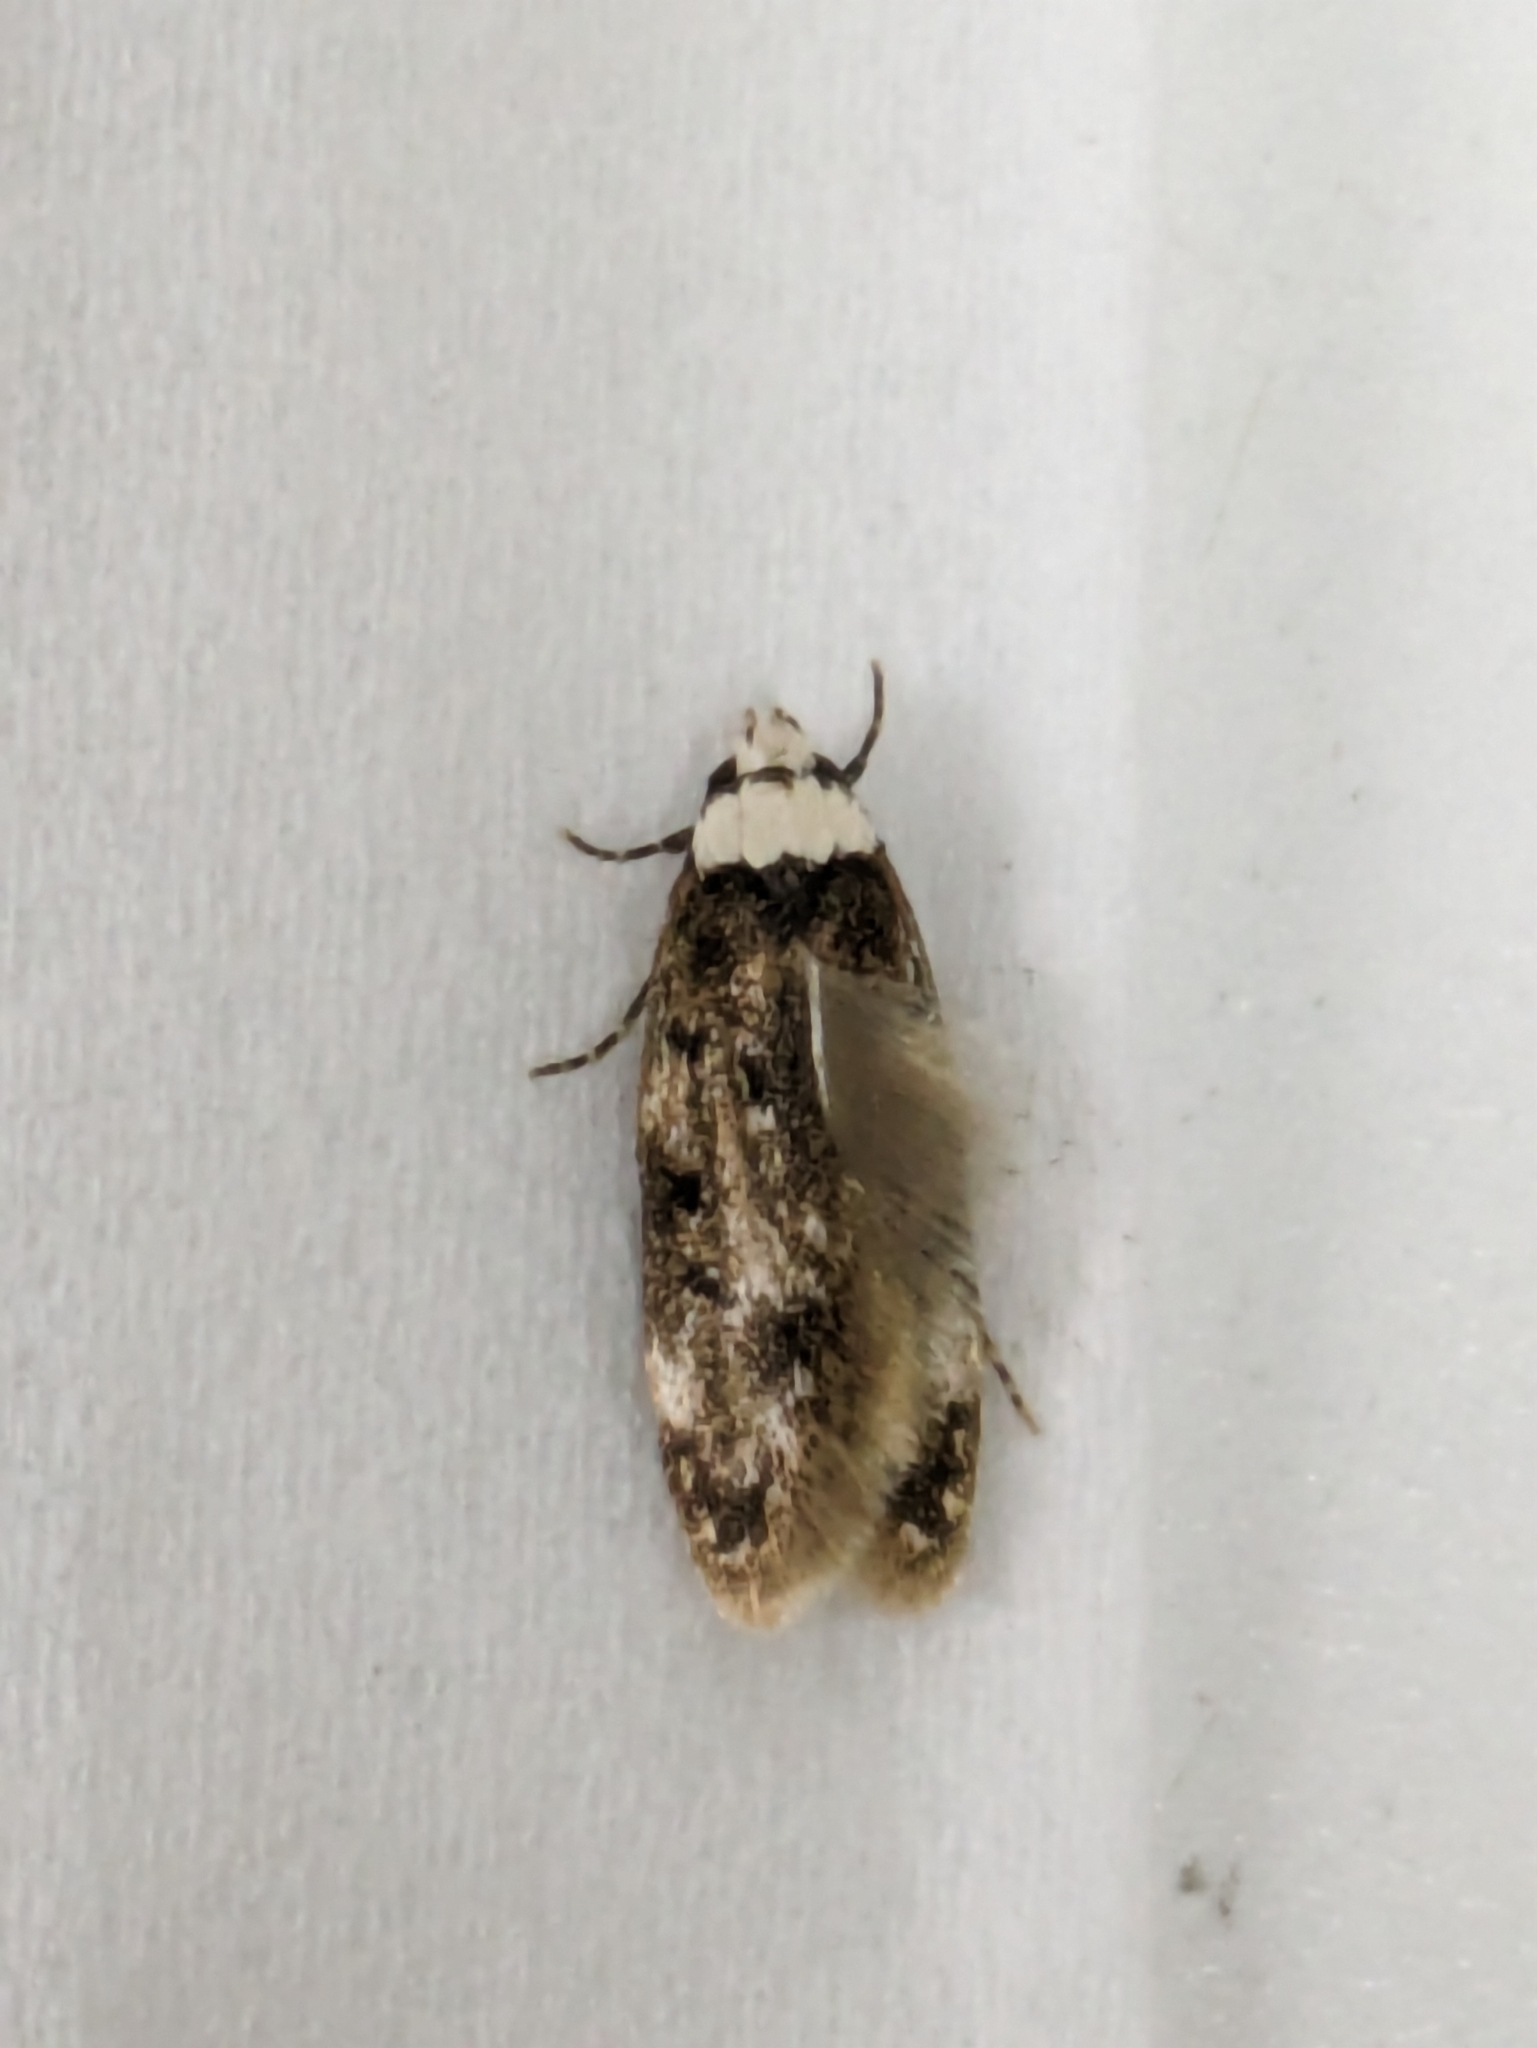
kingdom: Animalia
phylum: Arthropoda
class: Insecta
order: Lepidoptera
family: Oecophoridae
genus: Endrosis
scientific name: Endrosis sarcitrella
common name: White-shouldered house moth
